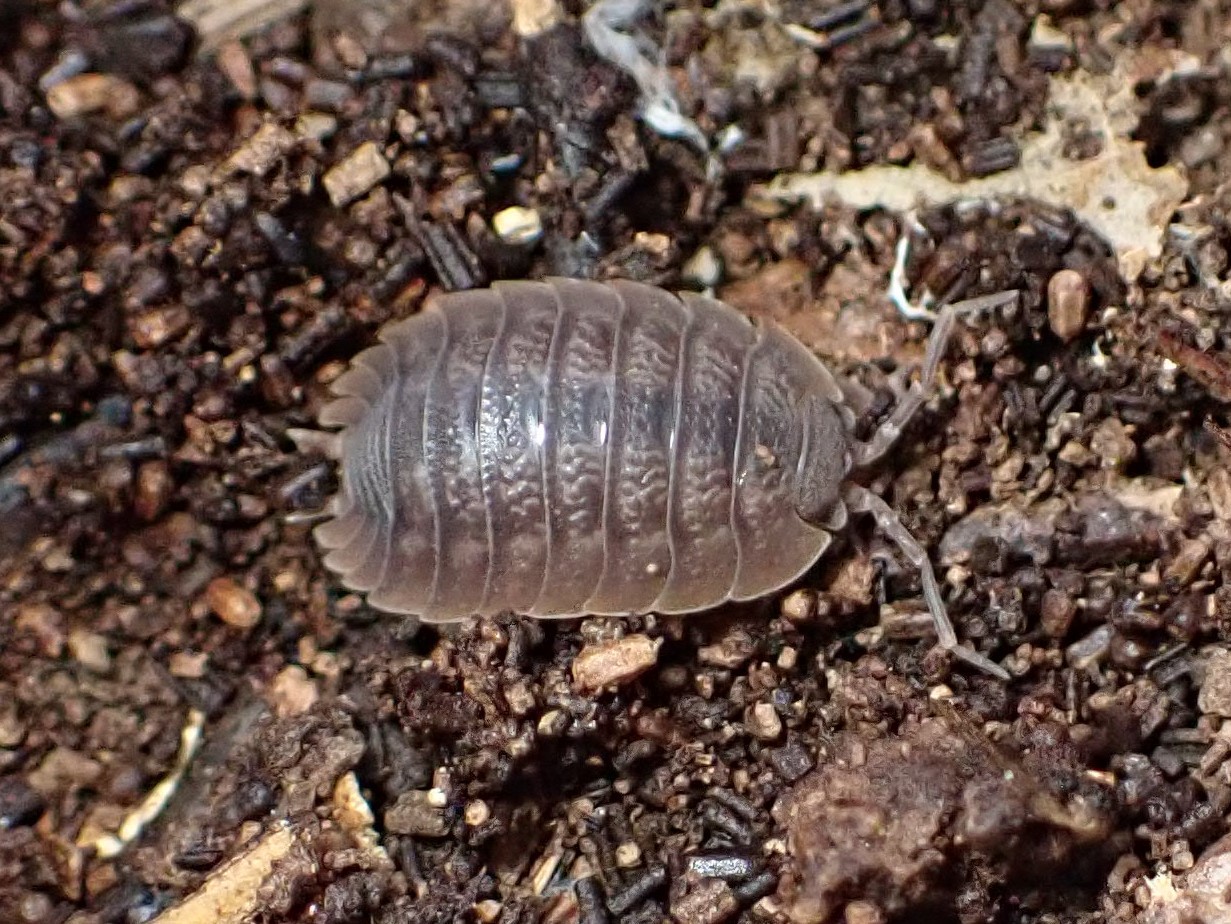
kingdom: Animalia
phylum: Arthropoda
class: Malacostraca
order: Isopoda
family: Porcellionidae
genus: Porcellio
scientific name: Porcellio dilatatus
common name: Isopod
